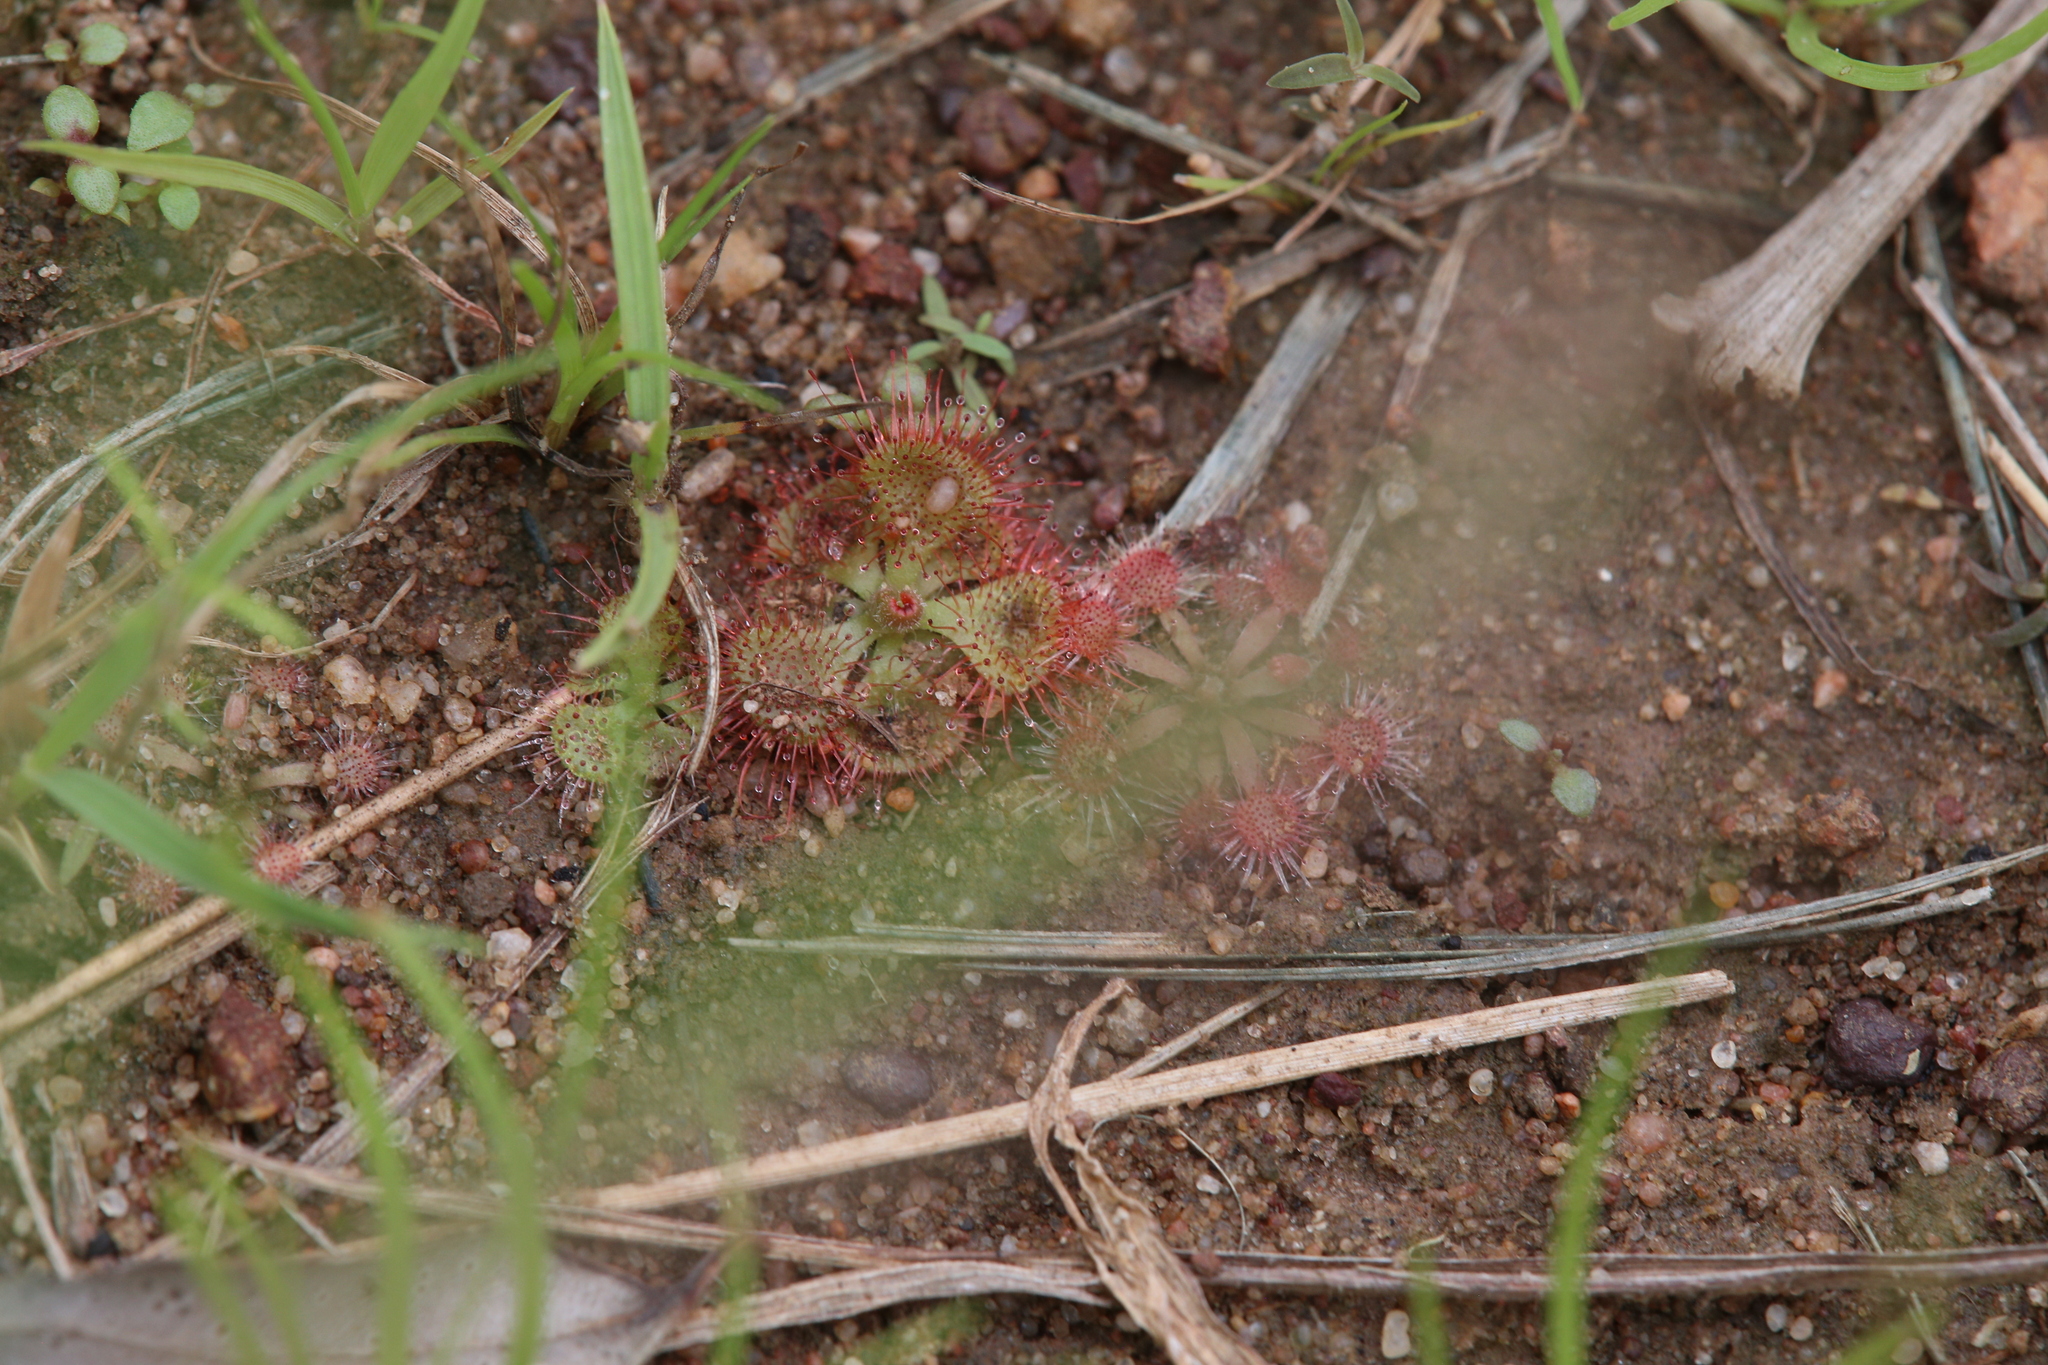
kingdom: Plantae
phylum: Tracheophyta
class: Magnoliopsida
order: Caryophyllales
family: Droseraceae
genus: Drosera
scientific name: Drosera spatulata
